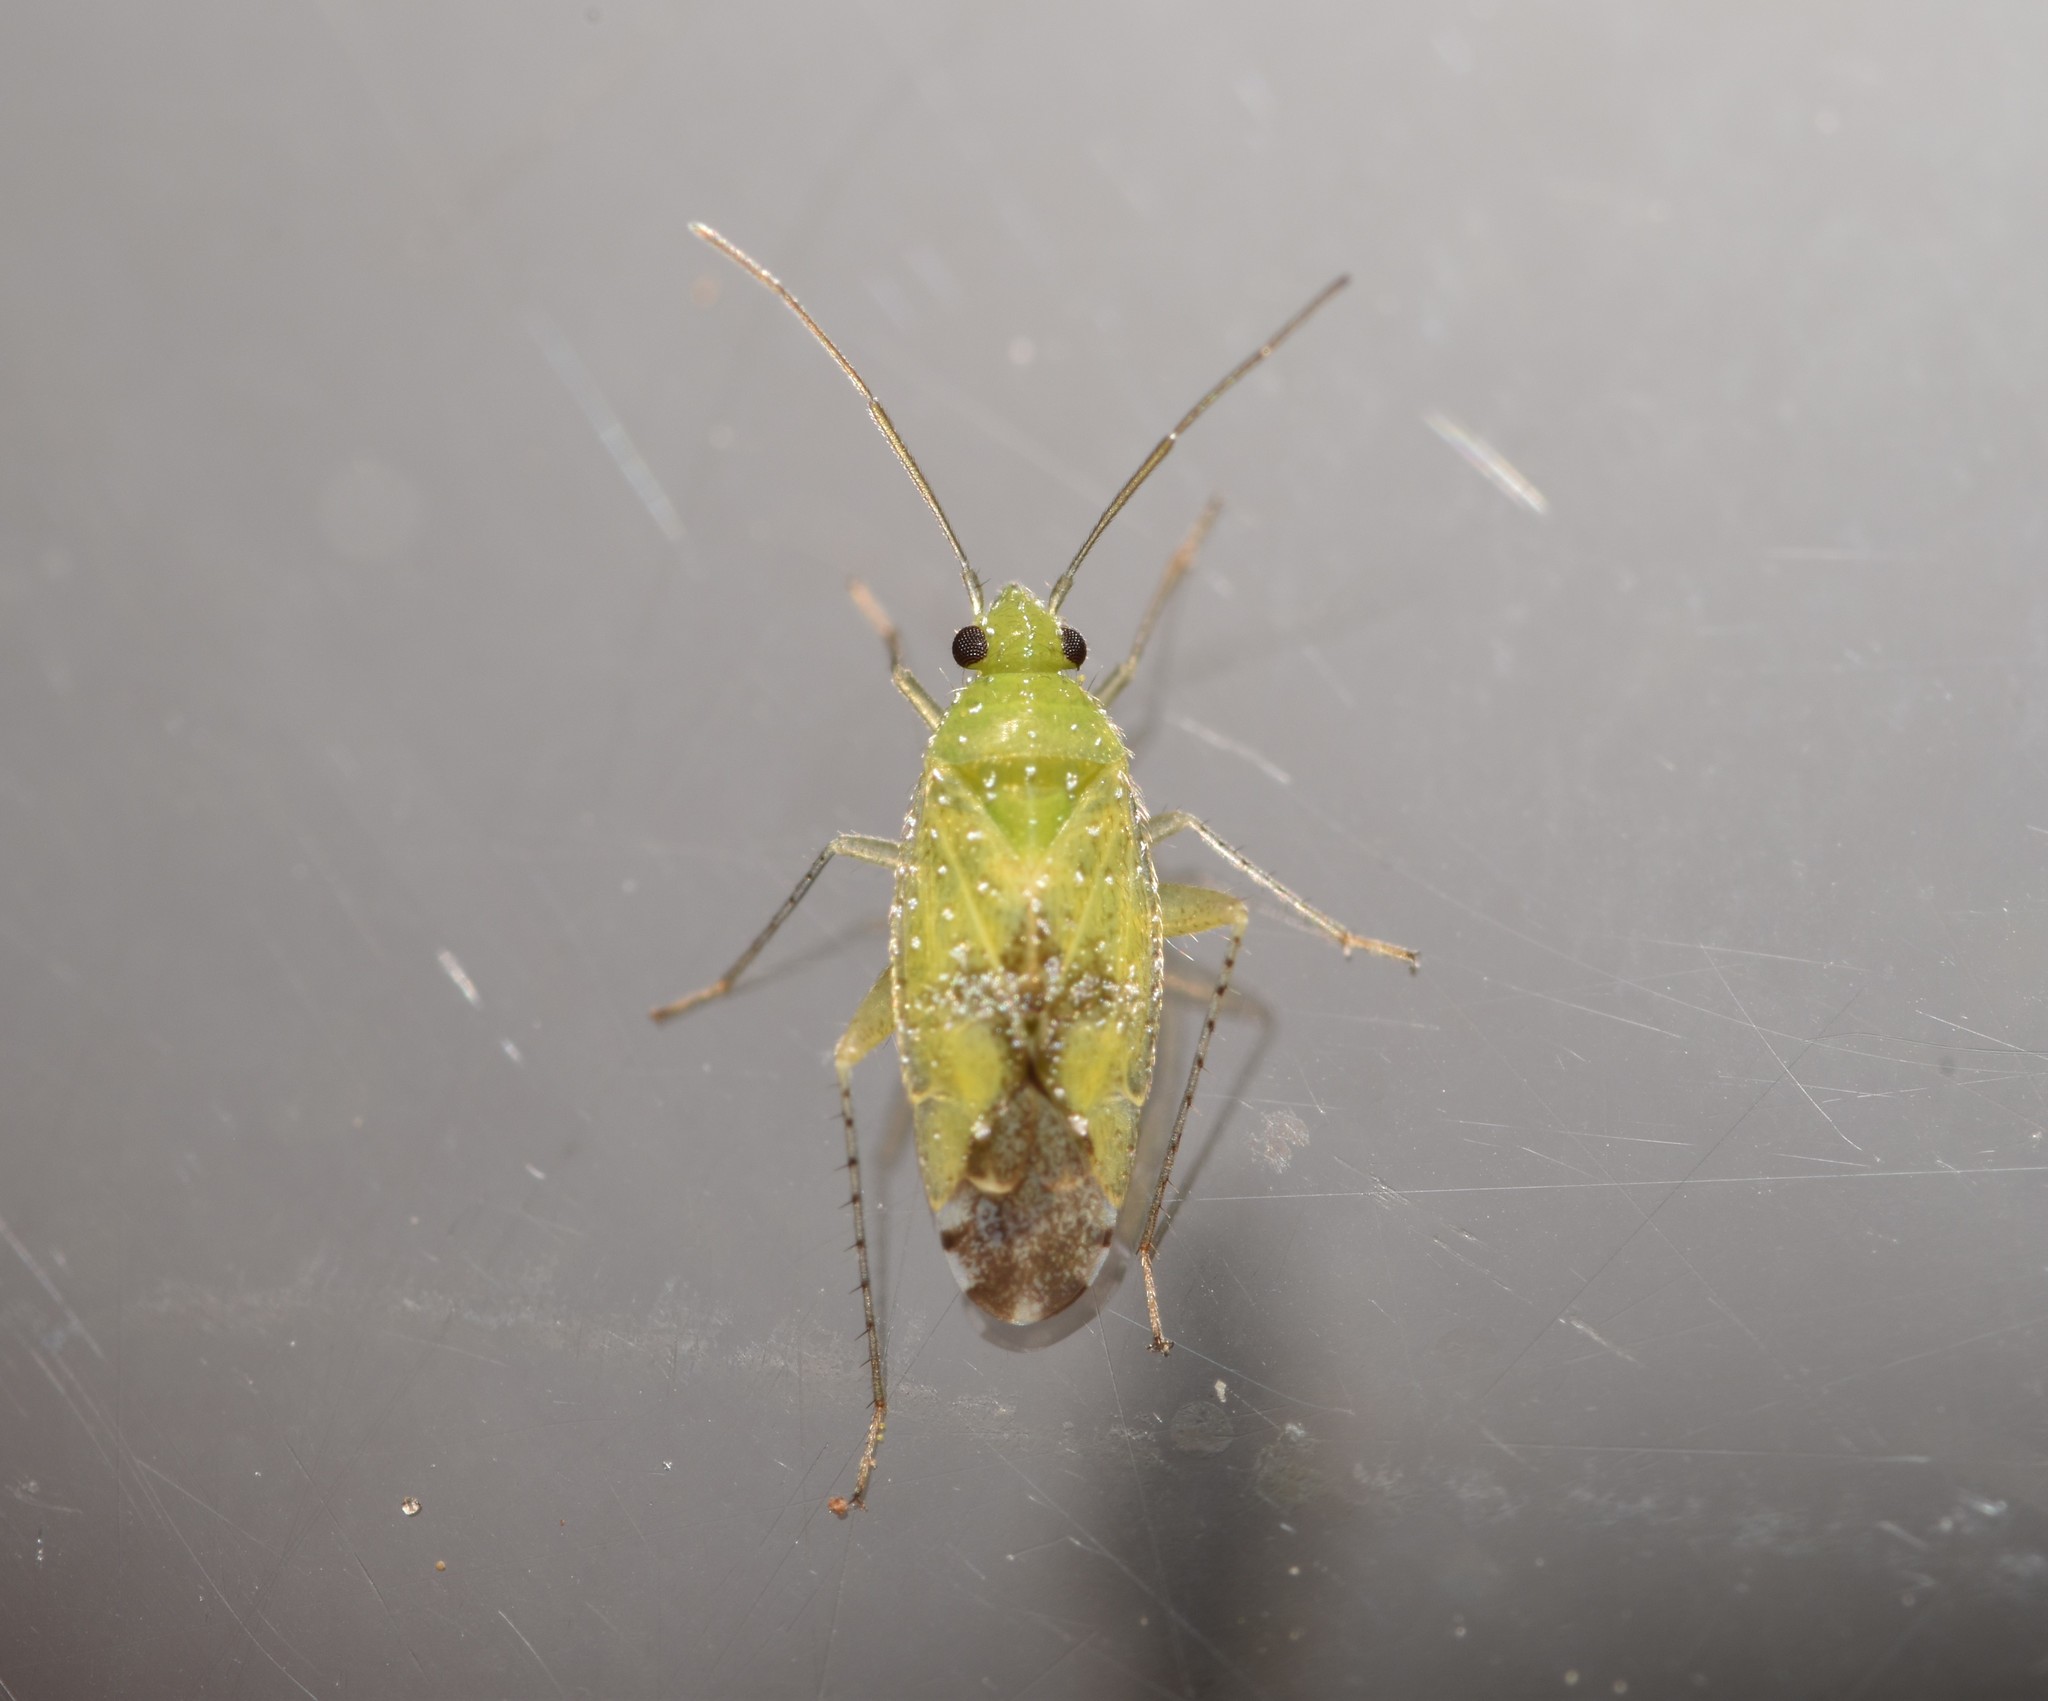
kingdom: Animalia
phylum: Arthropoda
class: Insecta
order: Hemiptera
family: Miridae
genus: Keltonia
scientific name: Keltonia tuckeri
